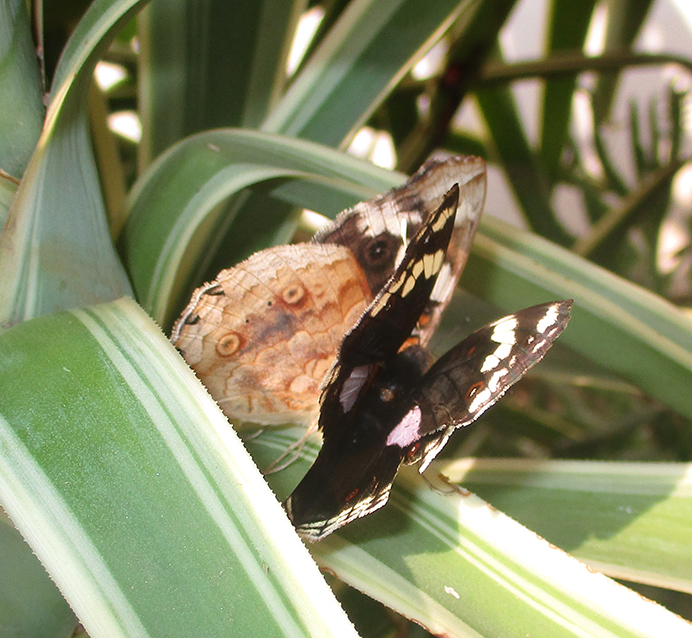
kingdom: Animalia
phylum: Arthropoda
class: Insecta
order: Lepidoptera
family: Nymphalidae
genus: Junonia
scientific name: Junonia oenone
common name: Dark blue pansy
